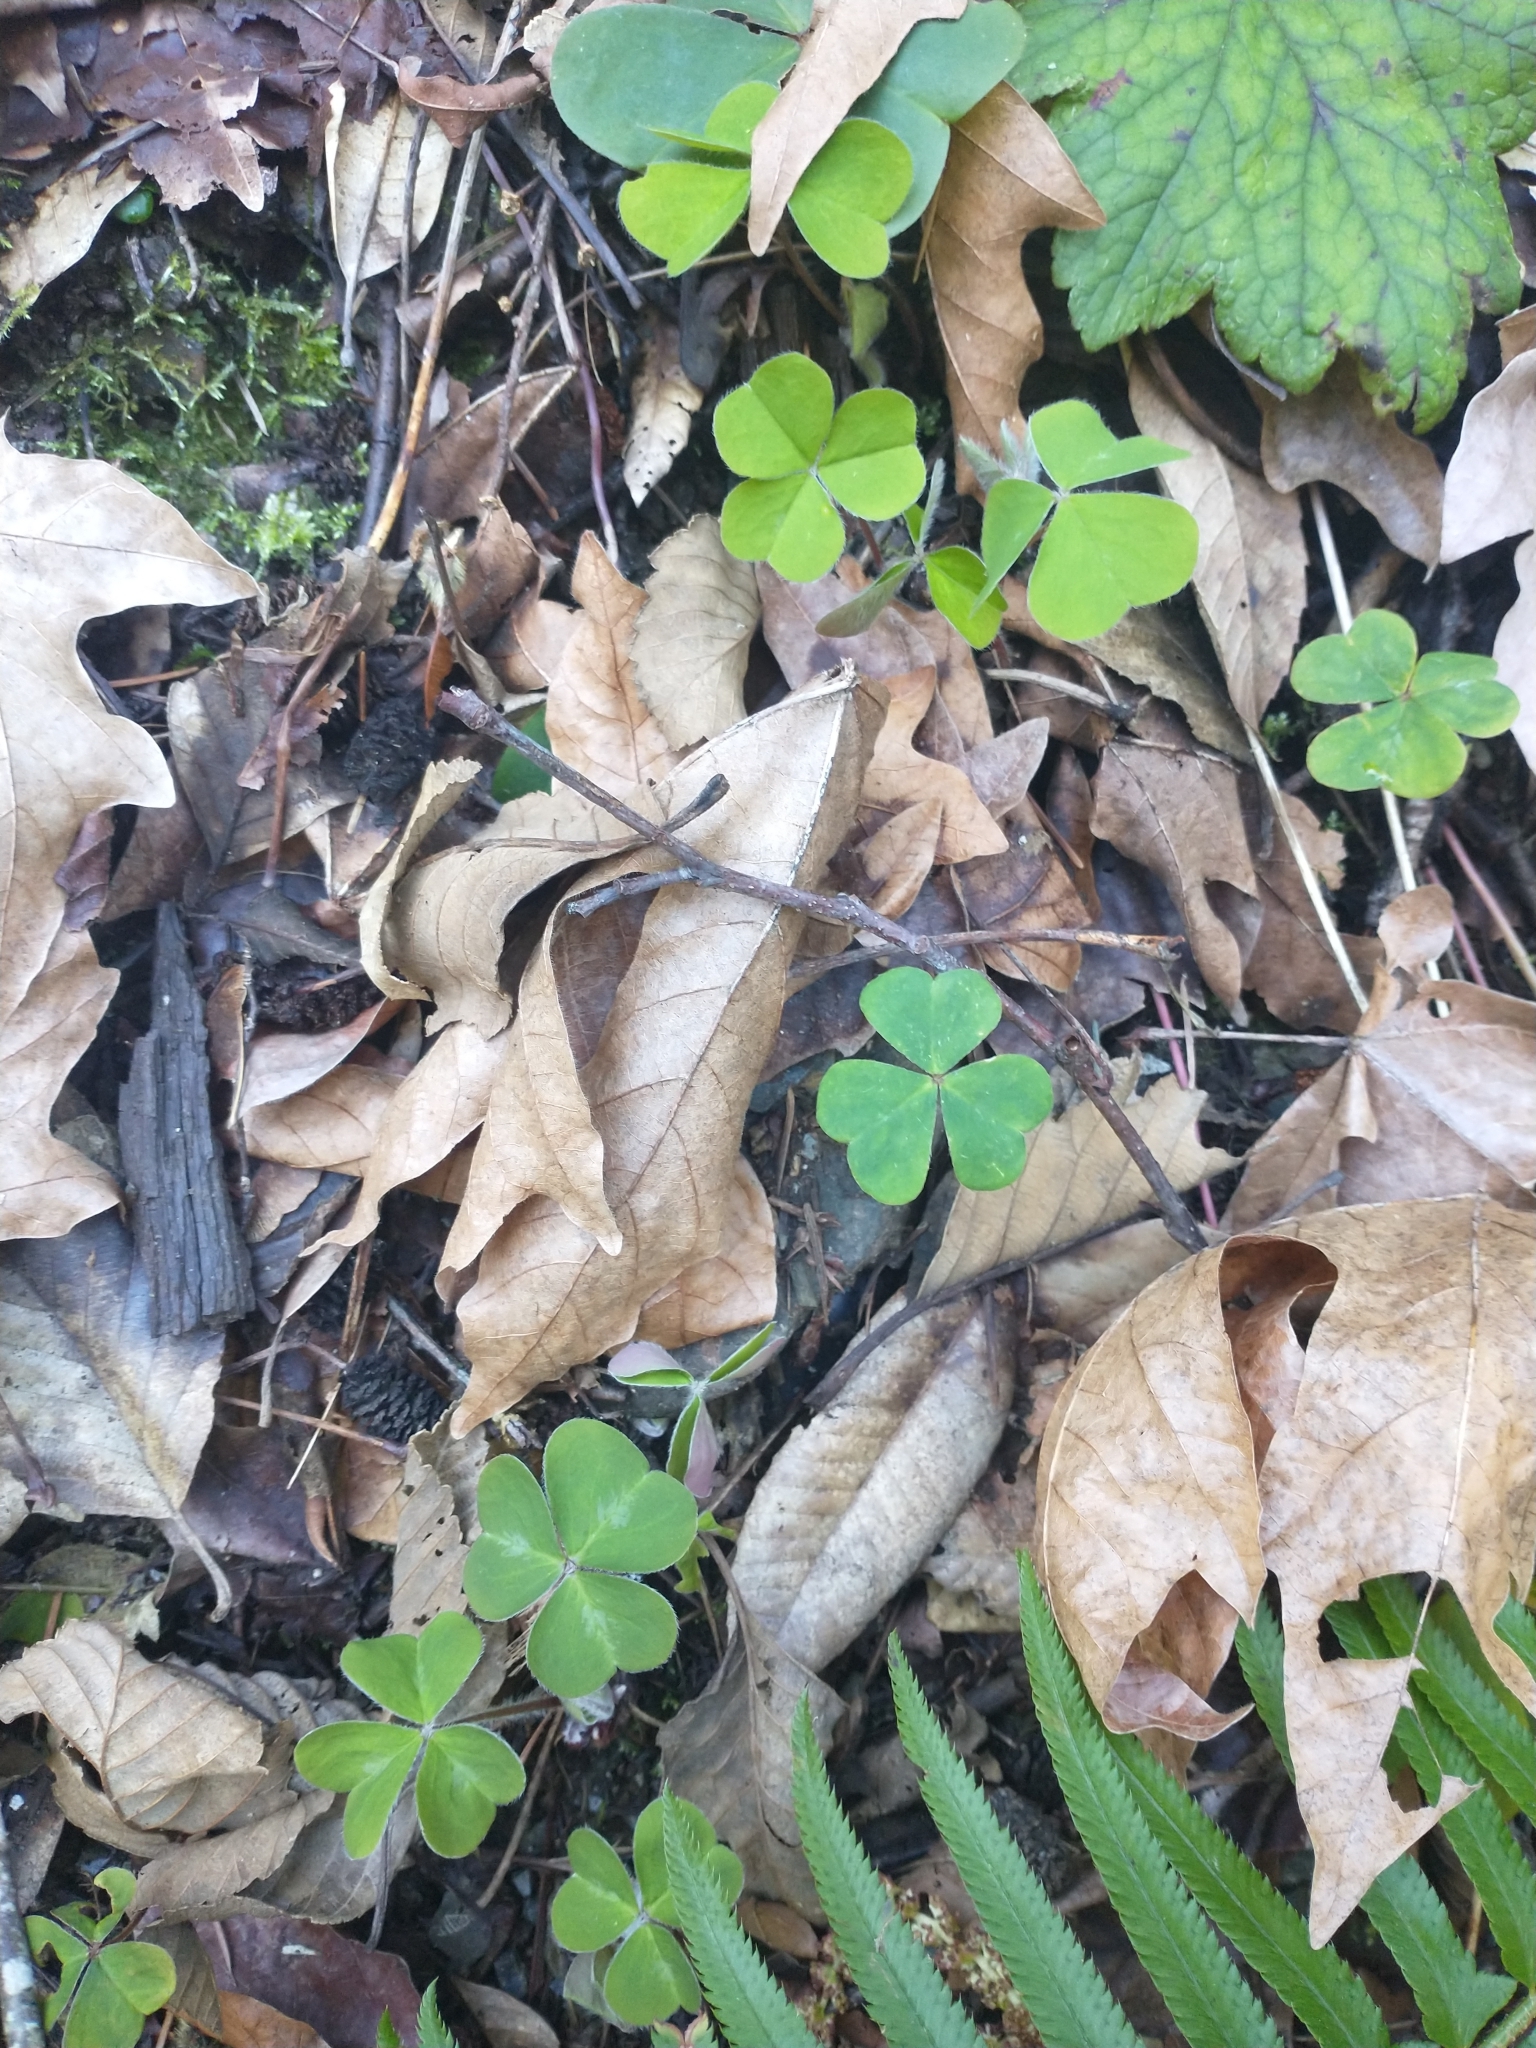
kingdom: Plantae
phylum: Tracheophyta
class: Magnoliopsida
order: Oxalidales
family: Oxalidaceae
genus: Oxalis
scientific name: Oxalis oregana
